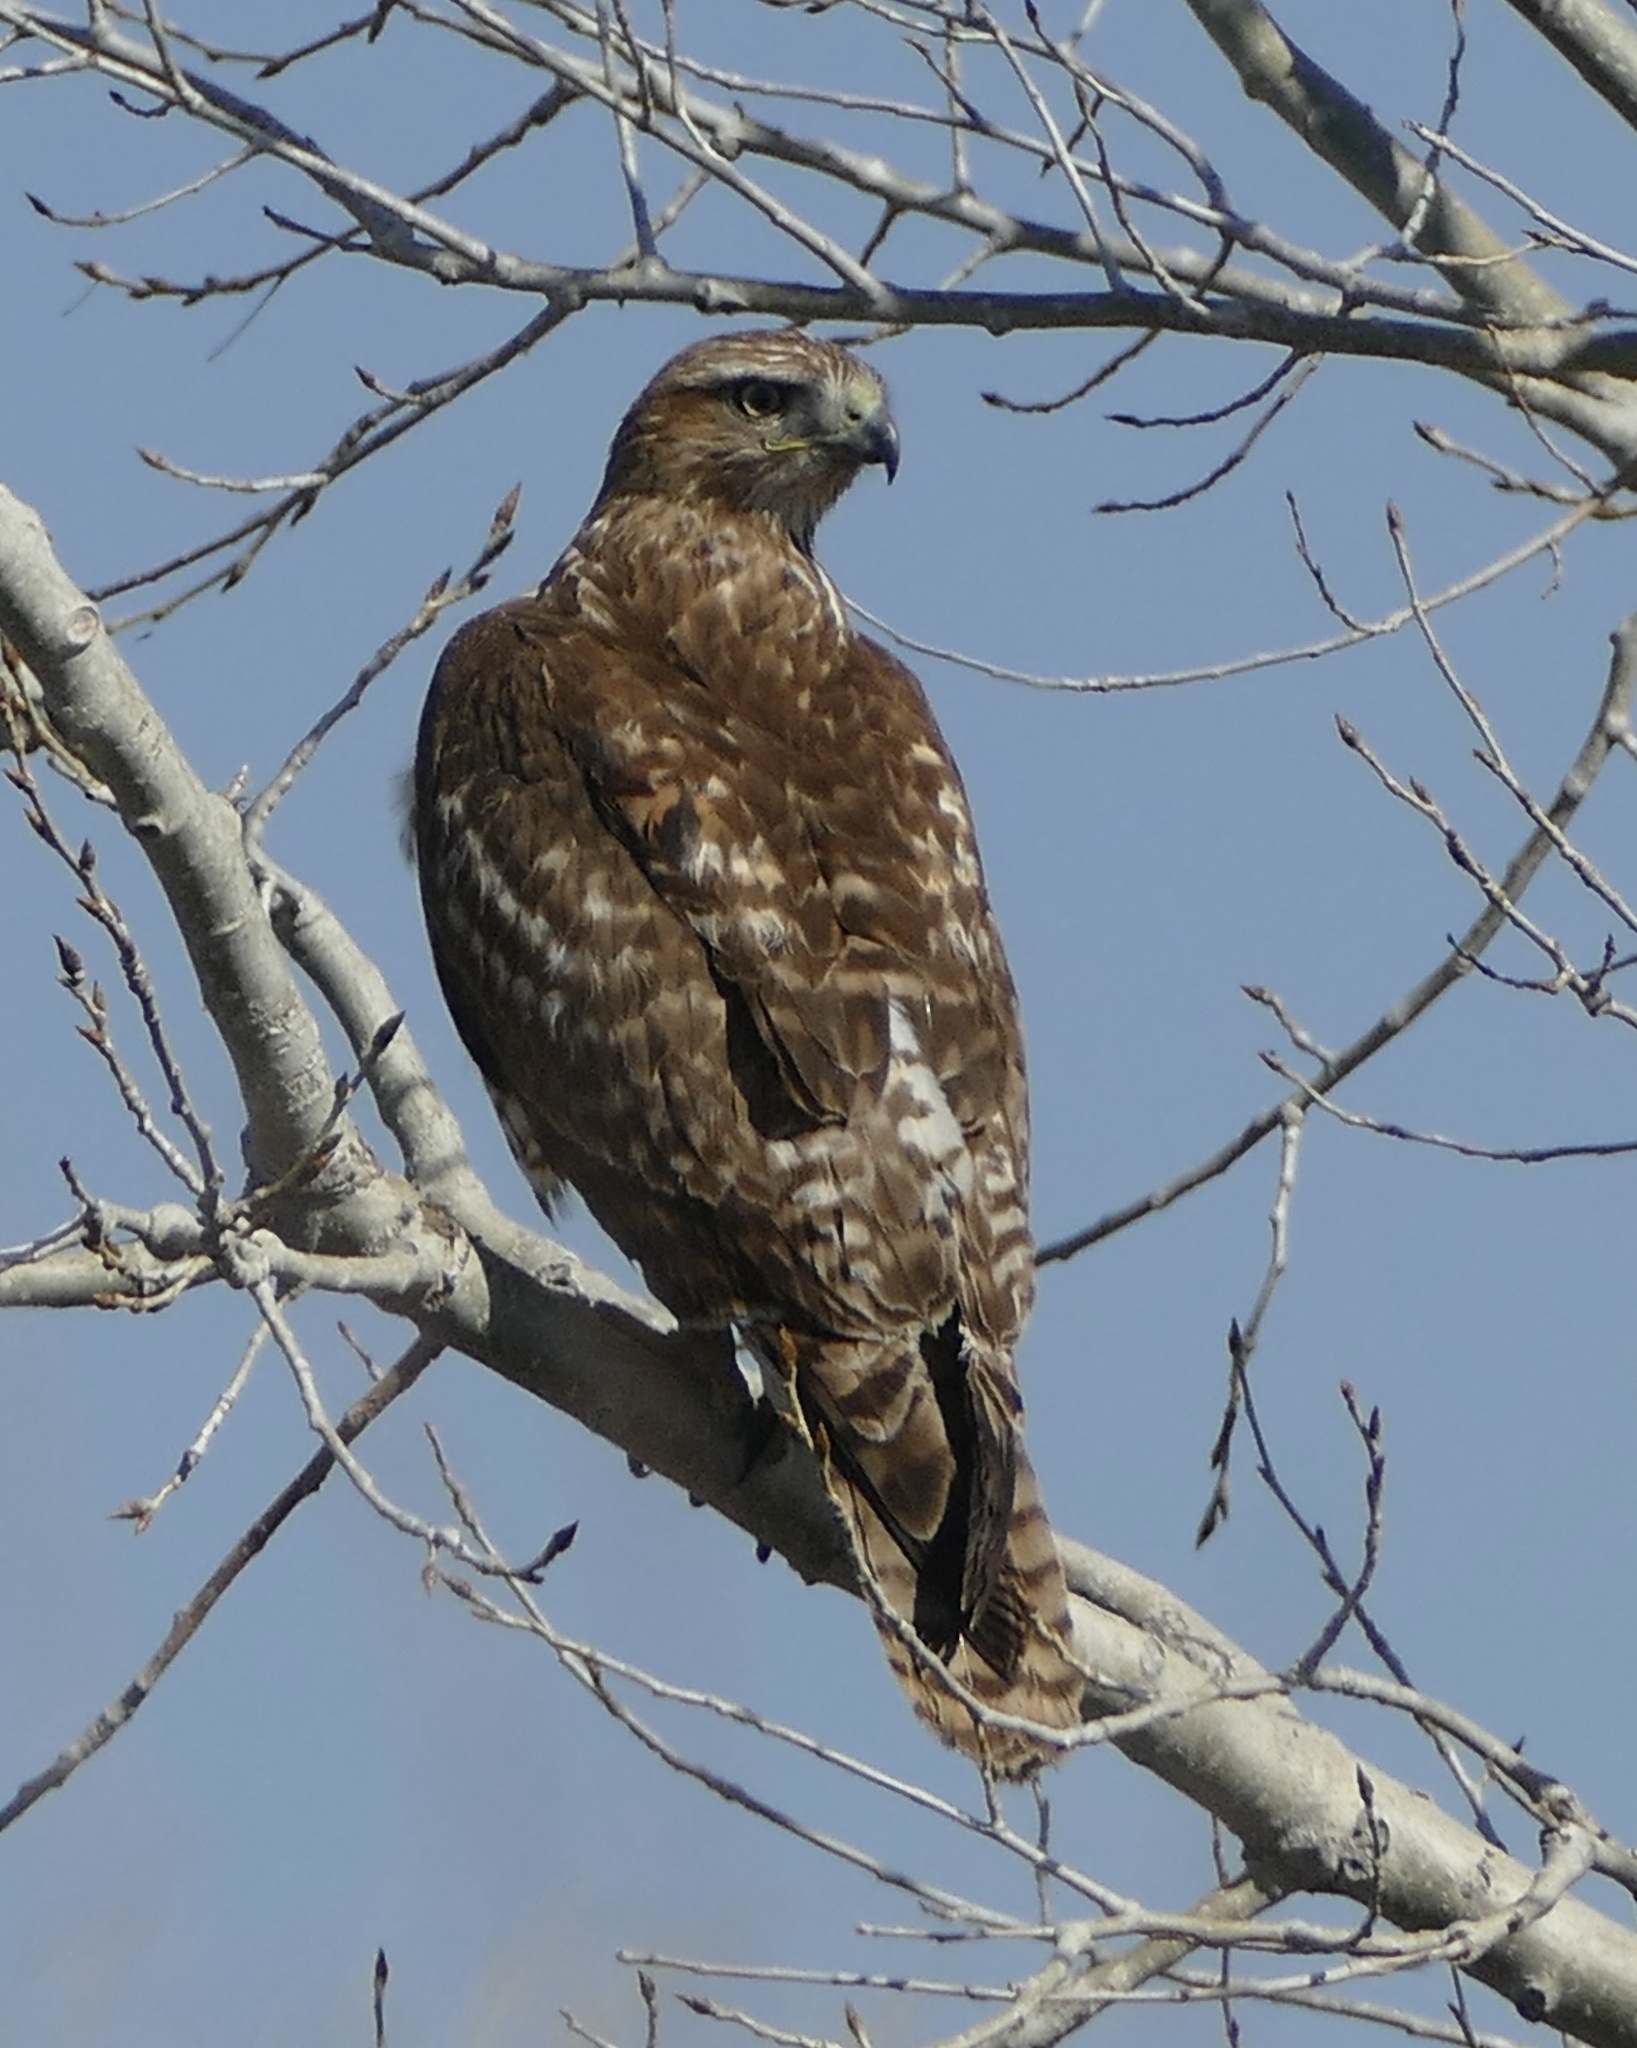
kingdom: Animalia
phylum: Chordata
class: Aves
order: Accipitriformes
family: Accipitridae
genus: Buteo
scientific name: Buteo jamaicensis
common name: Red-tailed hawk
